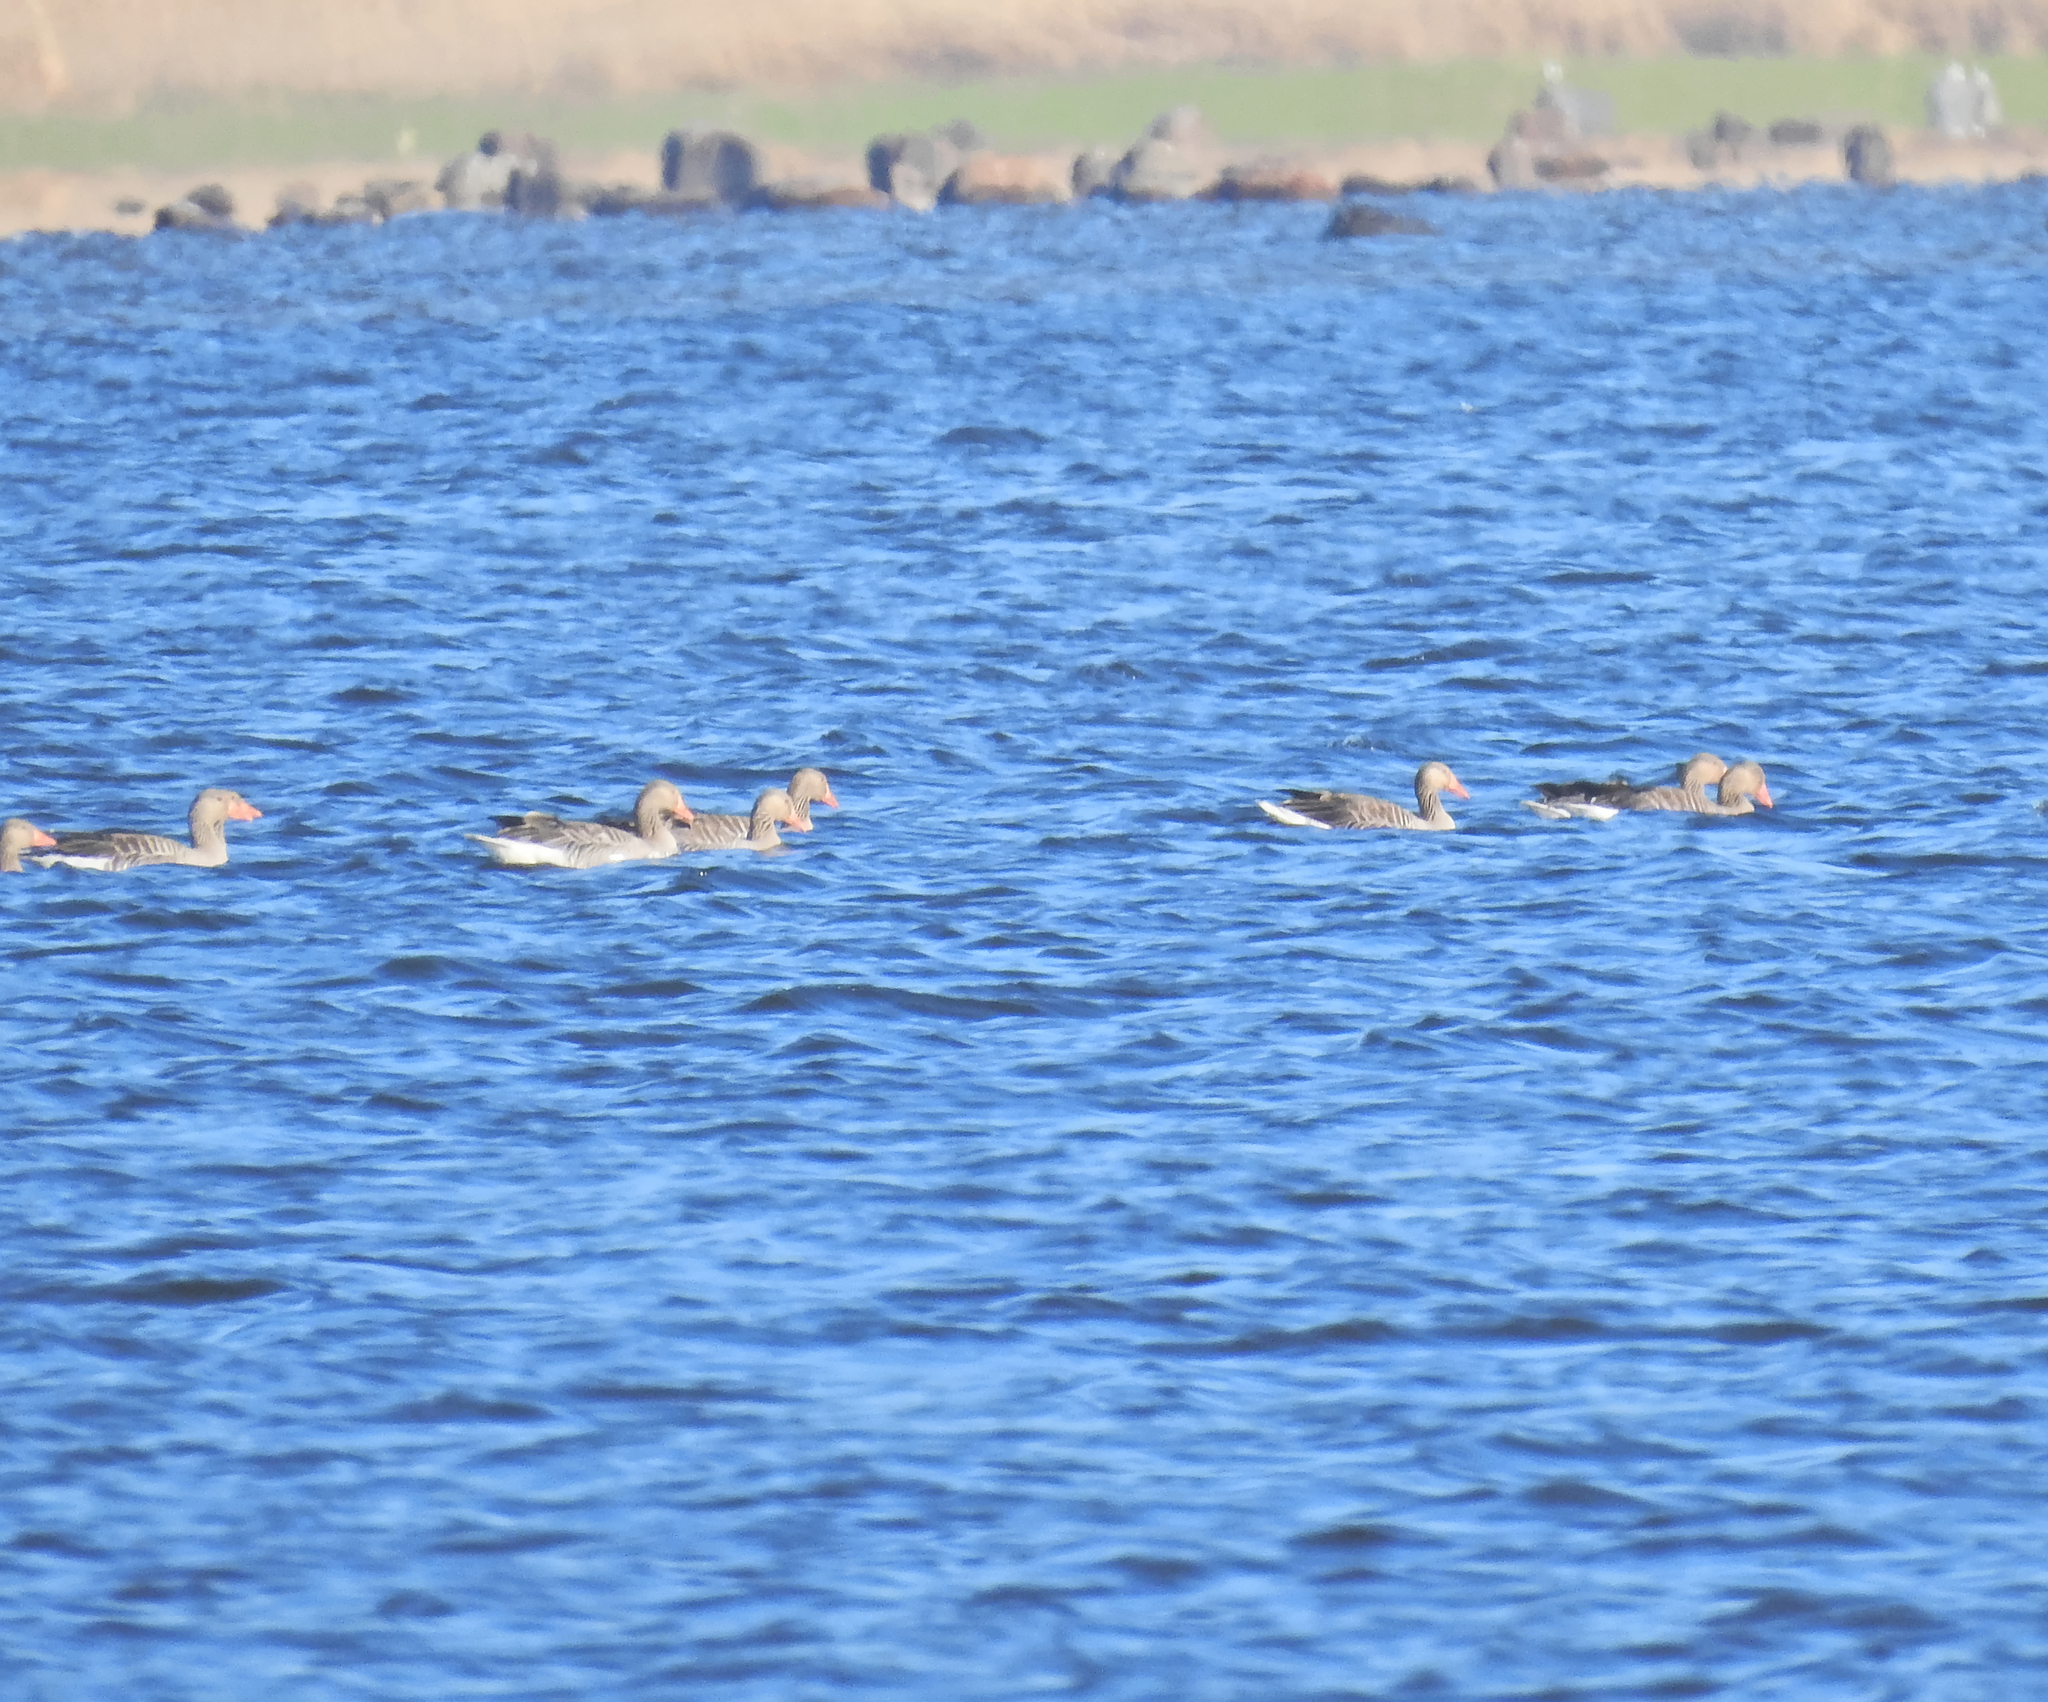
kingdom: Animalia
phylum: Chordata
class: Aves
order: Anseriformes
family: Anatidae
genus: Anser
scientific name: Anser anser
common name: Greylag goose
